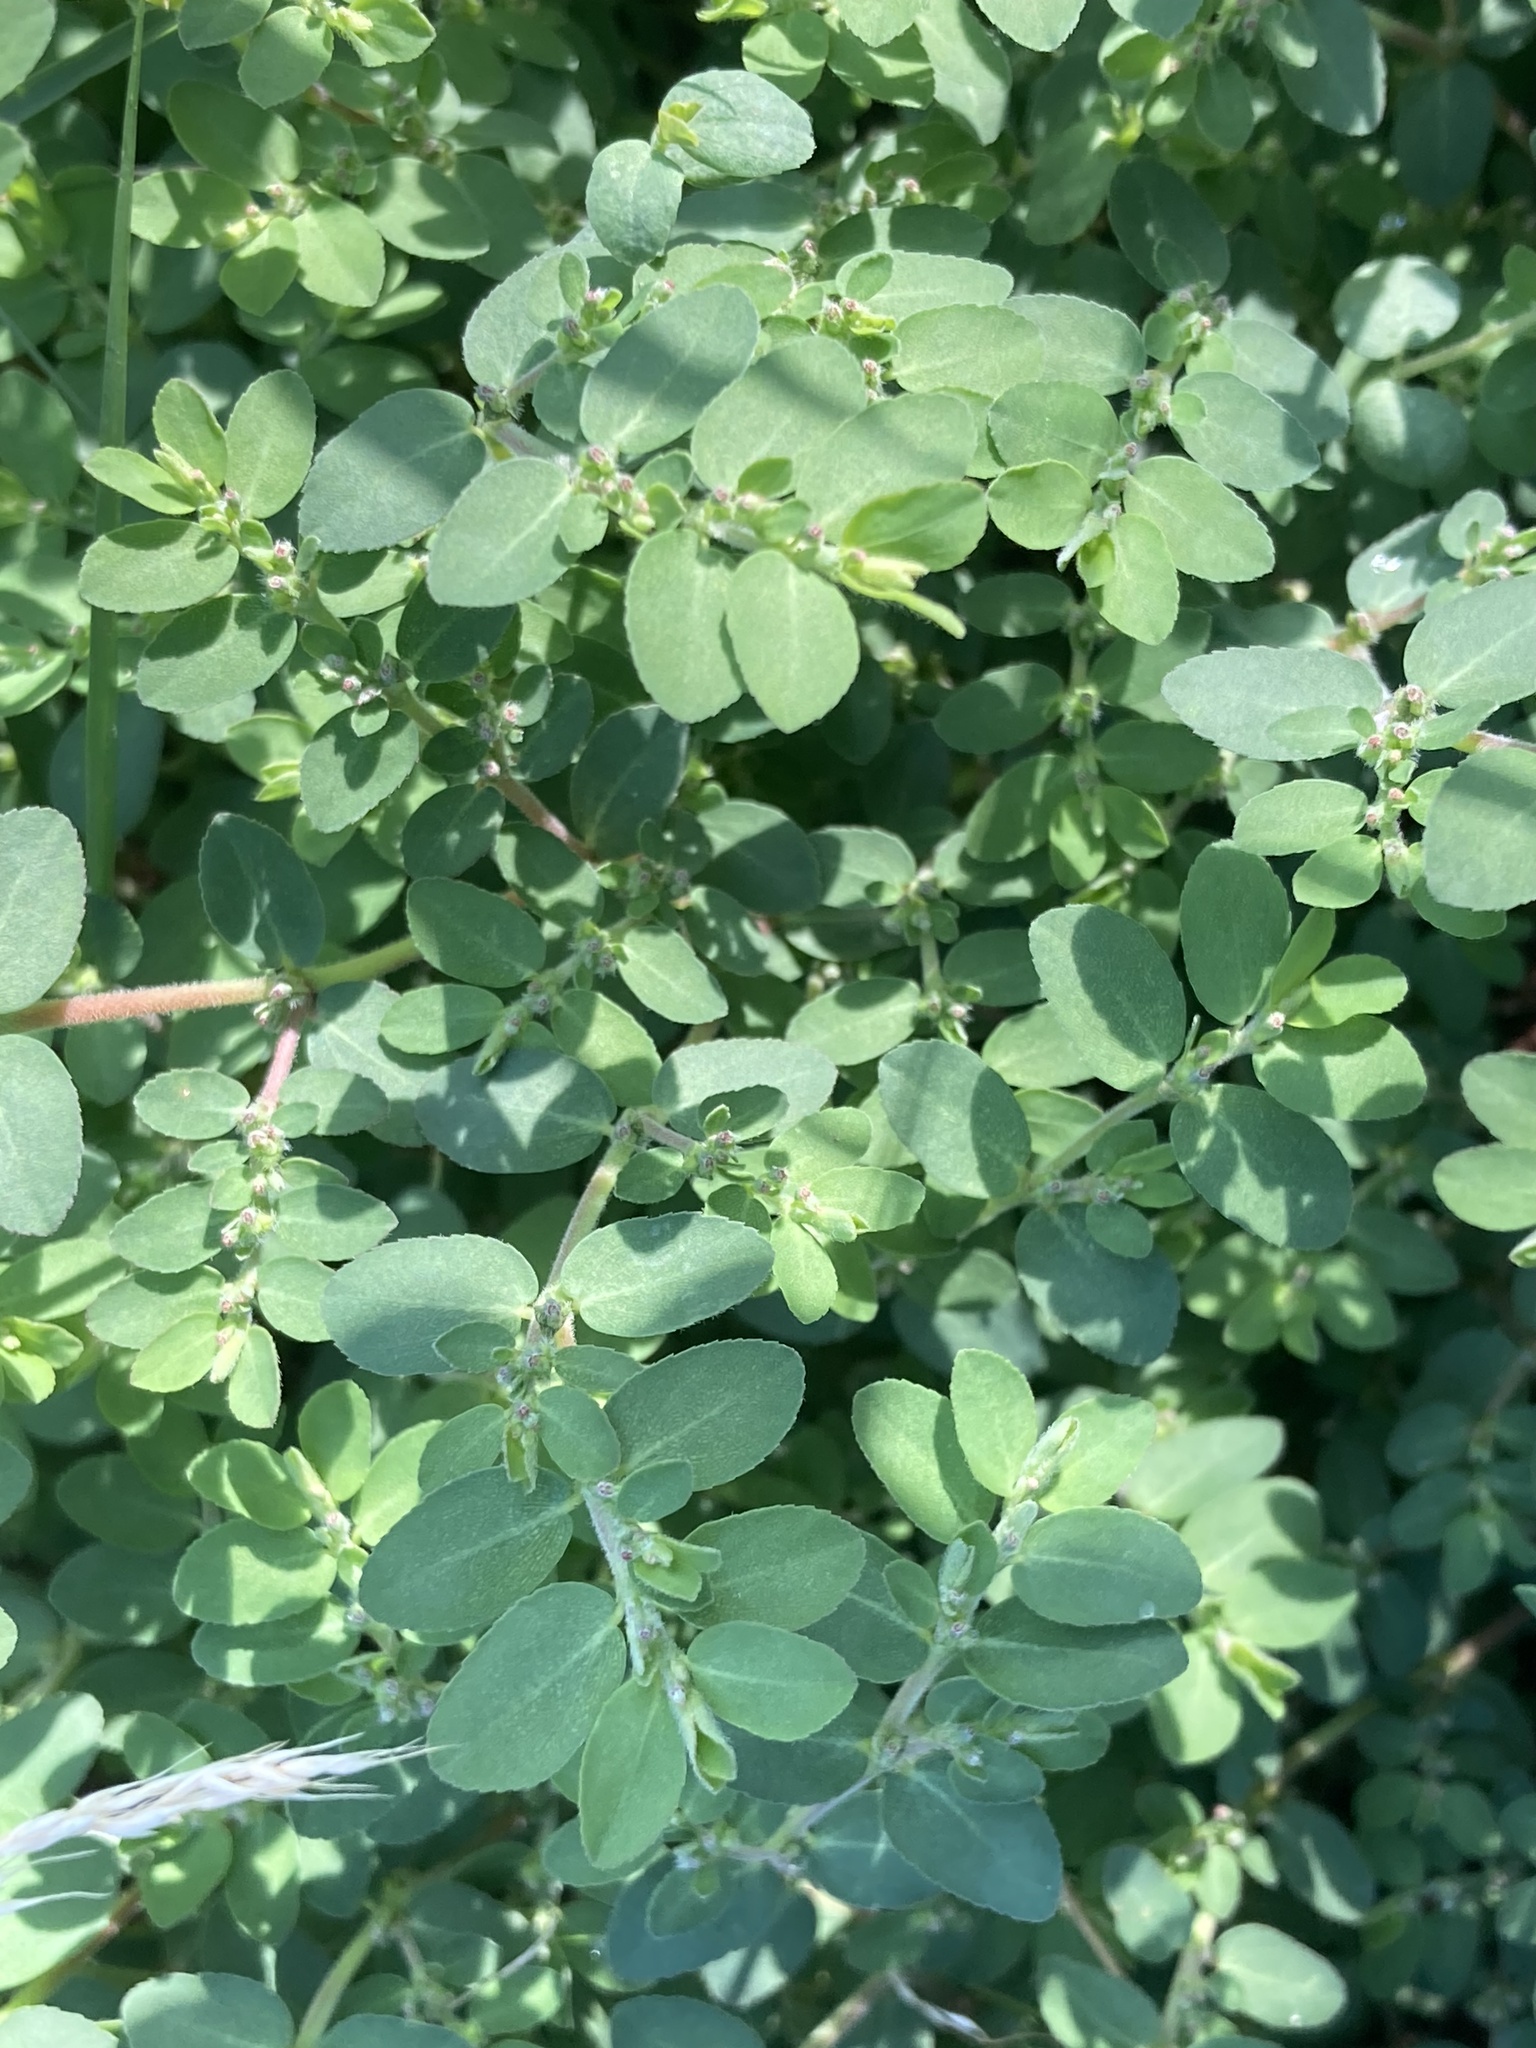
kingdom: Plantae
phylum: Tracheophyta
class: Magnoliopsida
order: Malpighiales
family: Euphorbiaceae
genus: Euphorbia
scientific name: Euphorbia prostrata
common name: Prostrate sandmat
